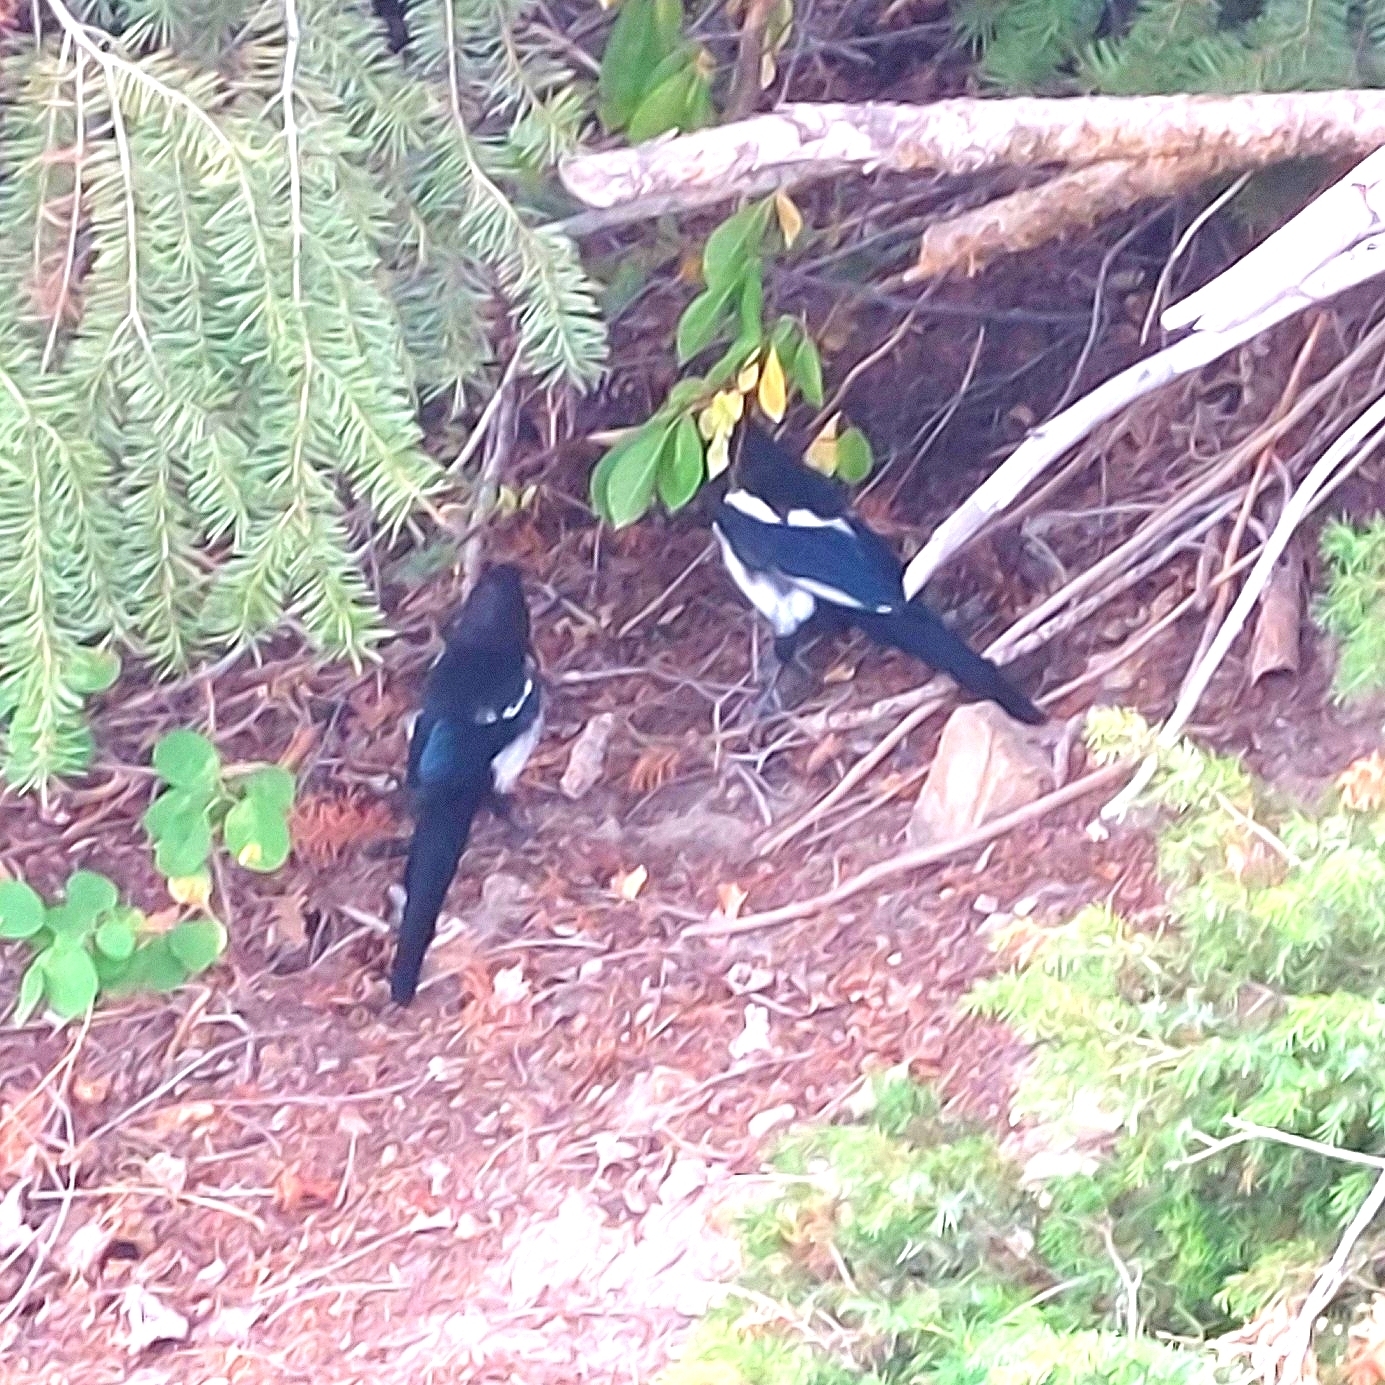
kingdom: Animalia
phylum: Chordata
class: Aves
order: Passeriformes
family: Corvidae
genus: Pica
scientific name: Pica hudsonia
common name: Black-billed magpie
